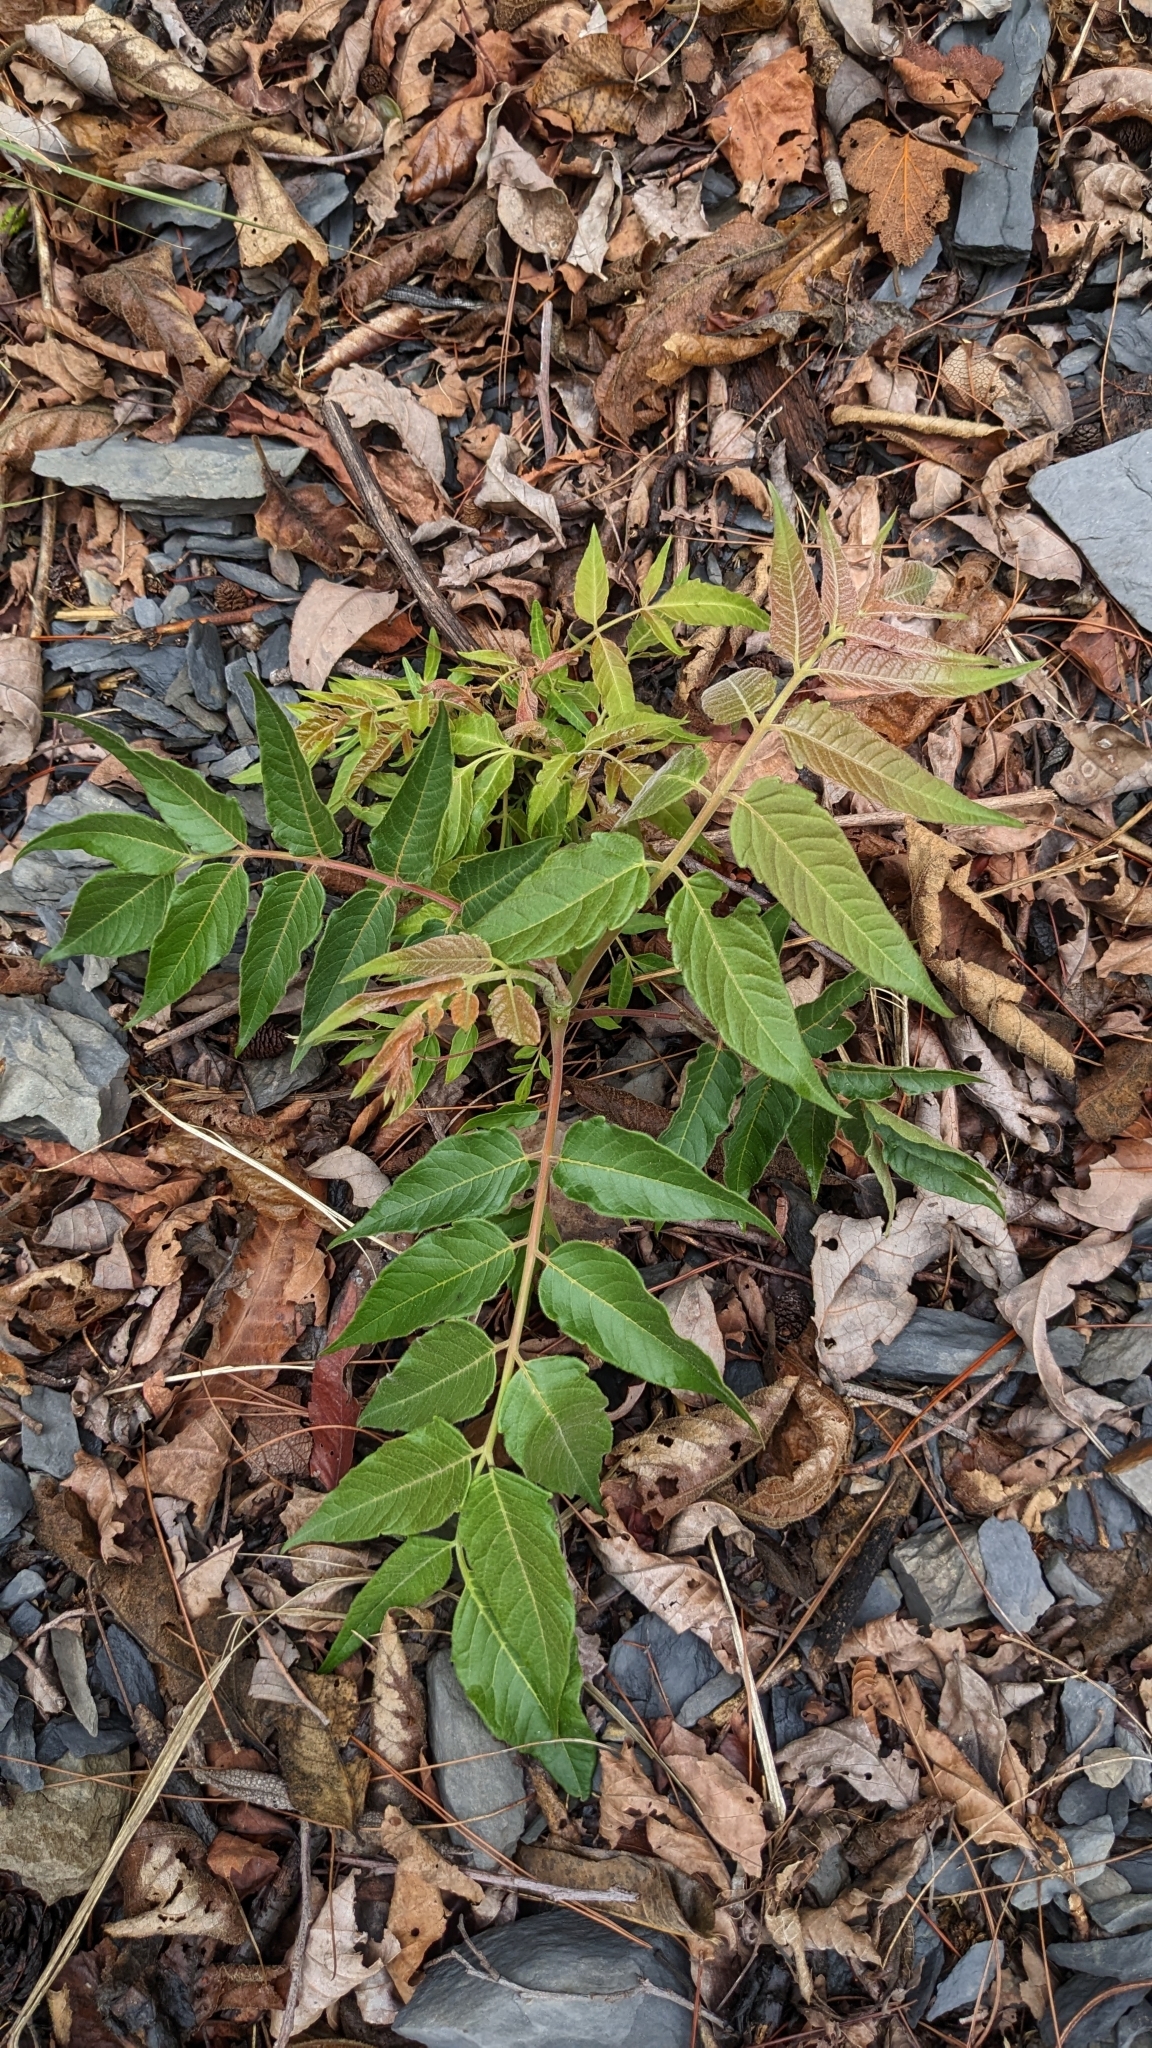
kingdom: Plantae
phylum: Tracheophyta
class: Magnoliopsida
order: Sapindales
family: Simaroubaceae
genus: Ailanthus
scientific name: Ailanthus altissima
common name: Tree-of-heaven
